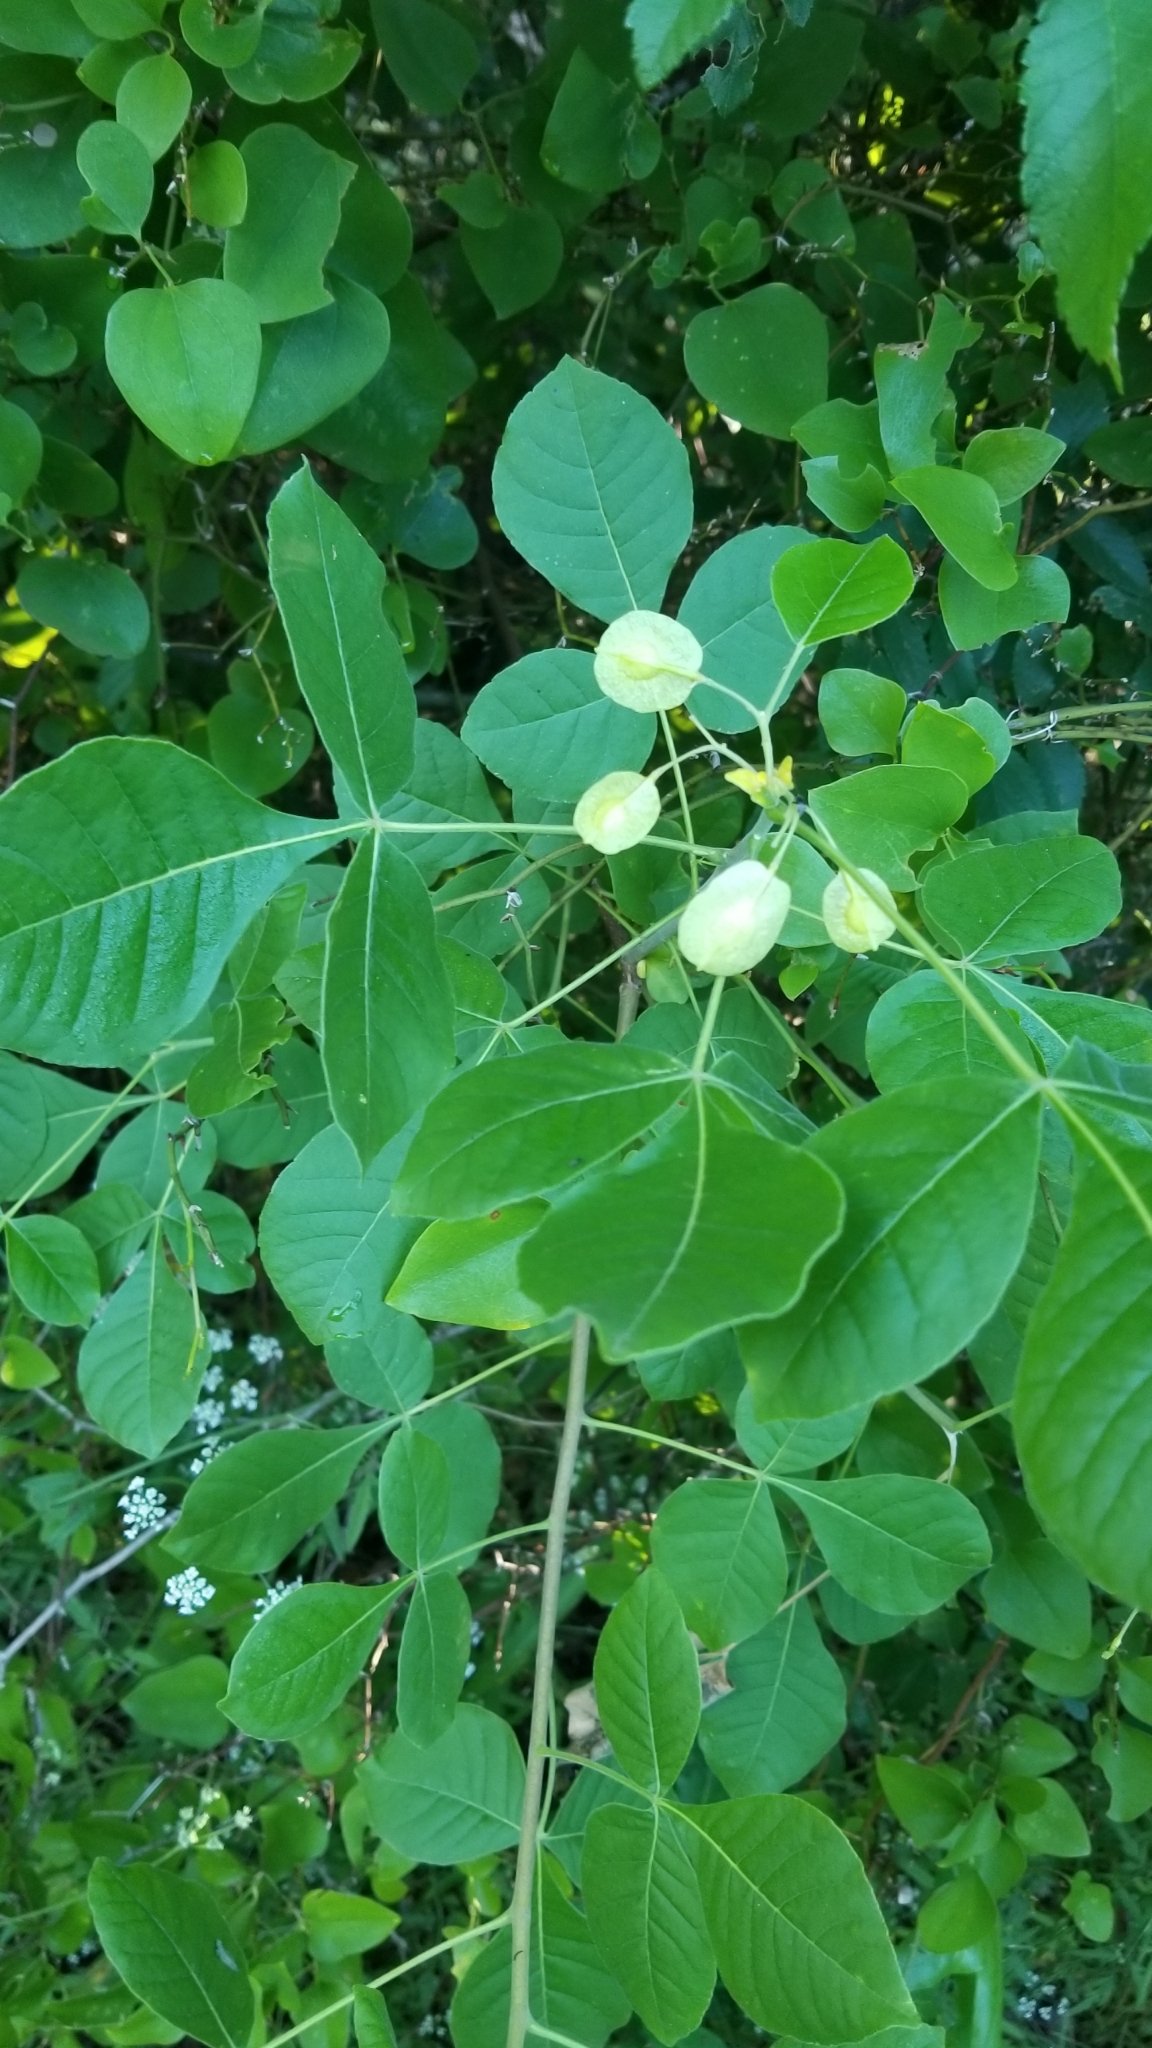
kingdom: Plantae
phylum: Tracheophyta
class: Magnoliopsida
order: Sapindales
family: Rutaceae
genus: Ptelea
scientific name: Ptelea trifoliata
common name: Common hop-tree
